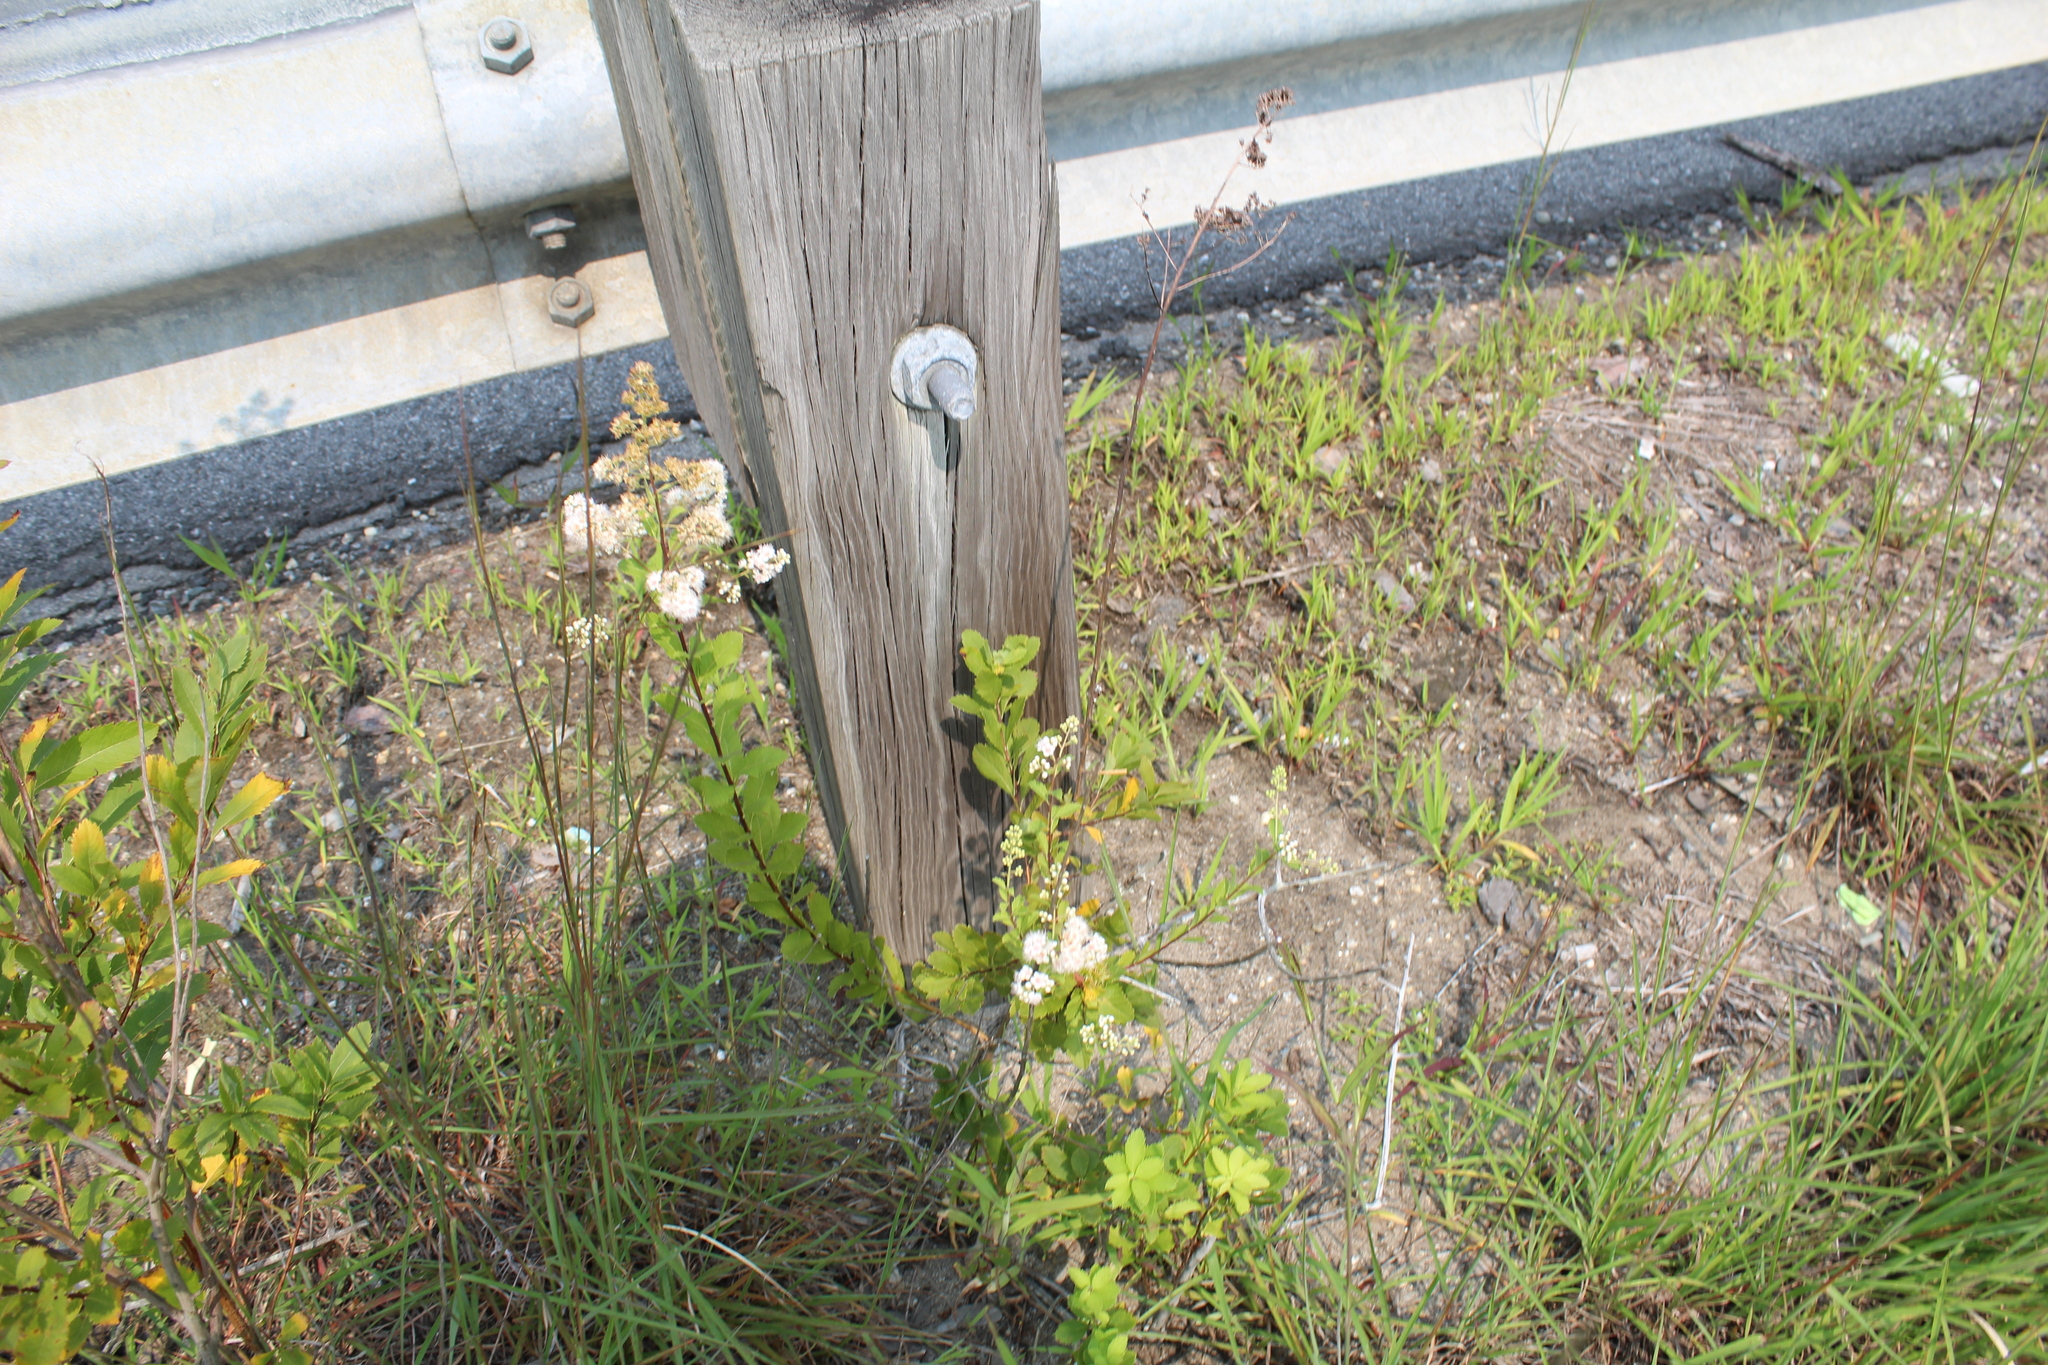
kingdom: Plantae
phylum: Tracheophyta
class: Magnoliopsida
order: Rosales
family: Rosaceae
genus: Spiraea
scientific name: Spiraea alba
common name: Pale bridewort
